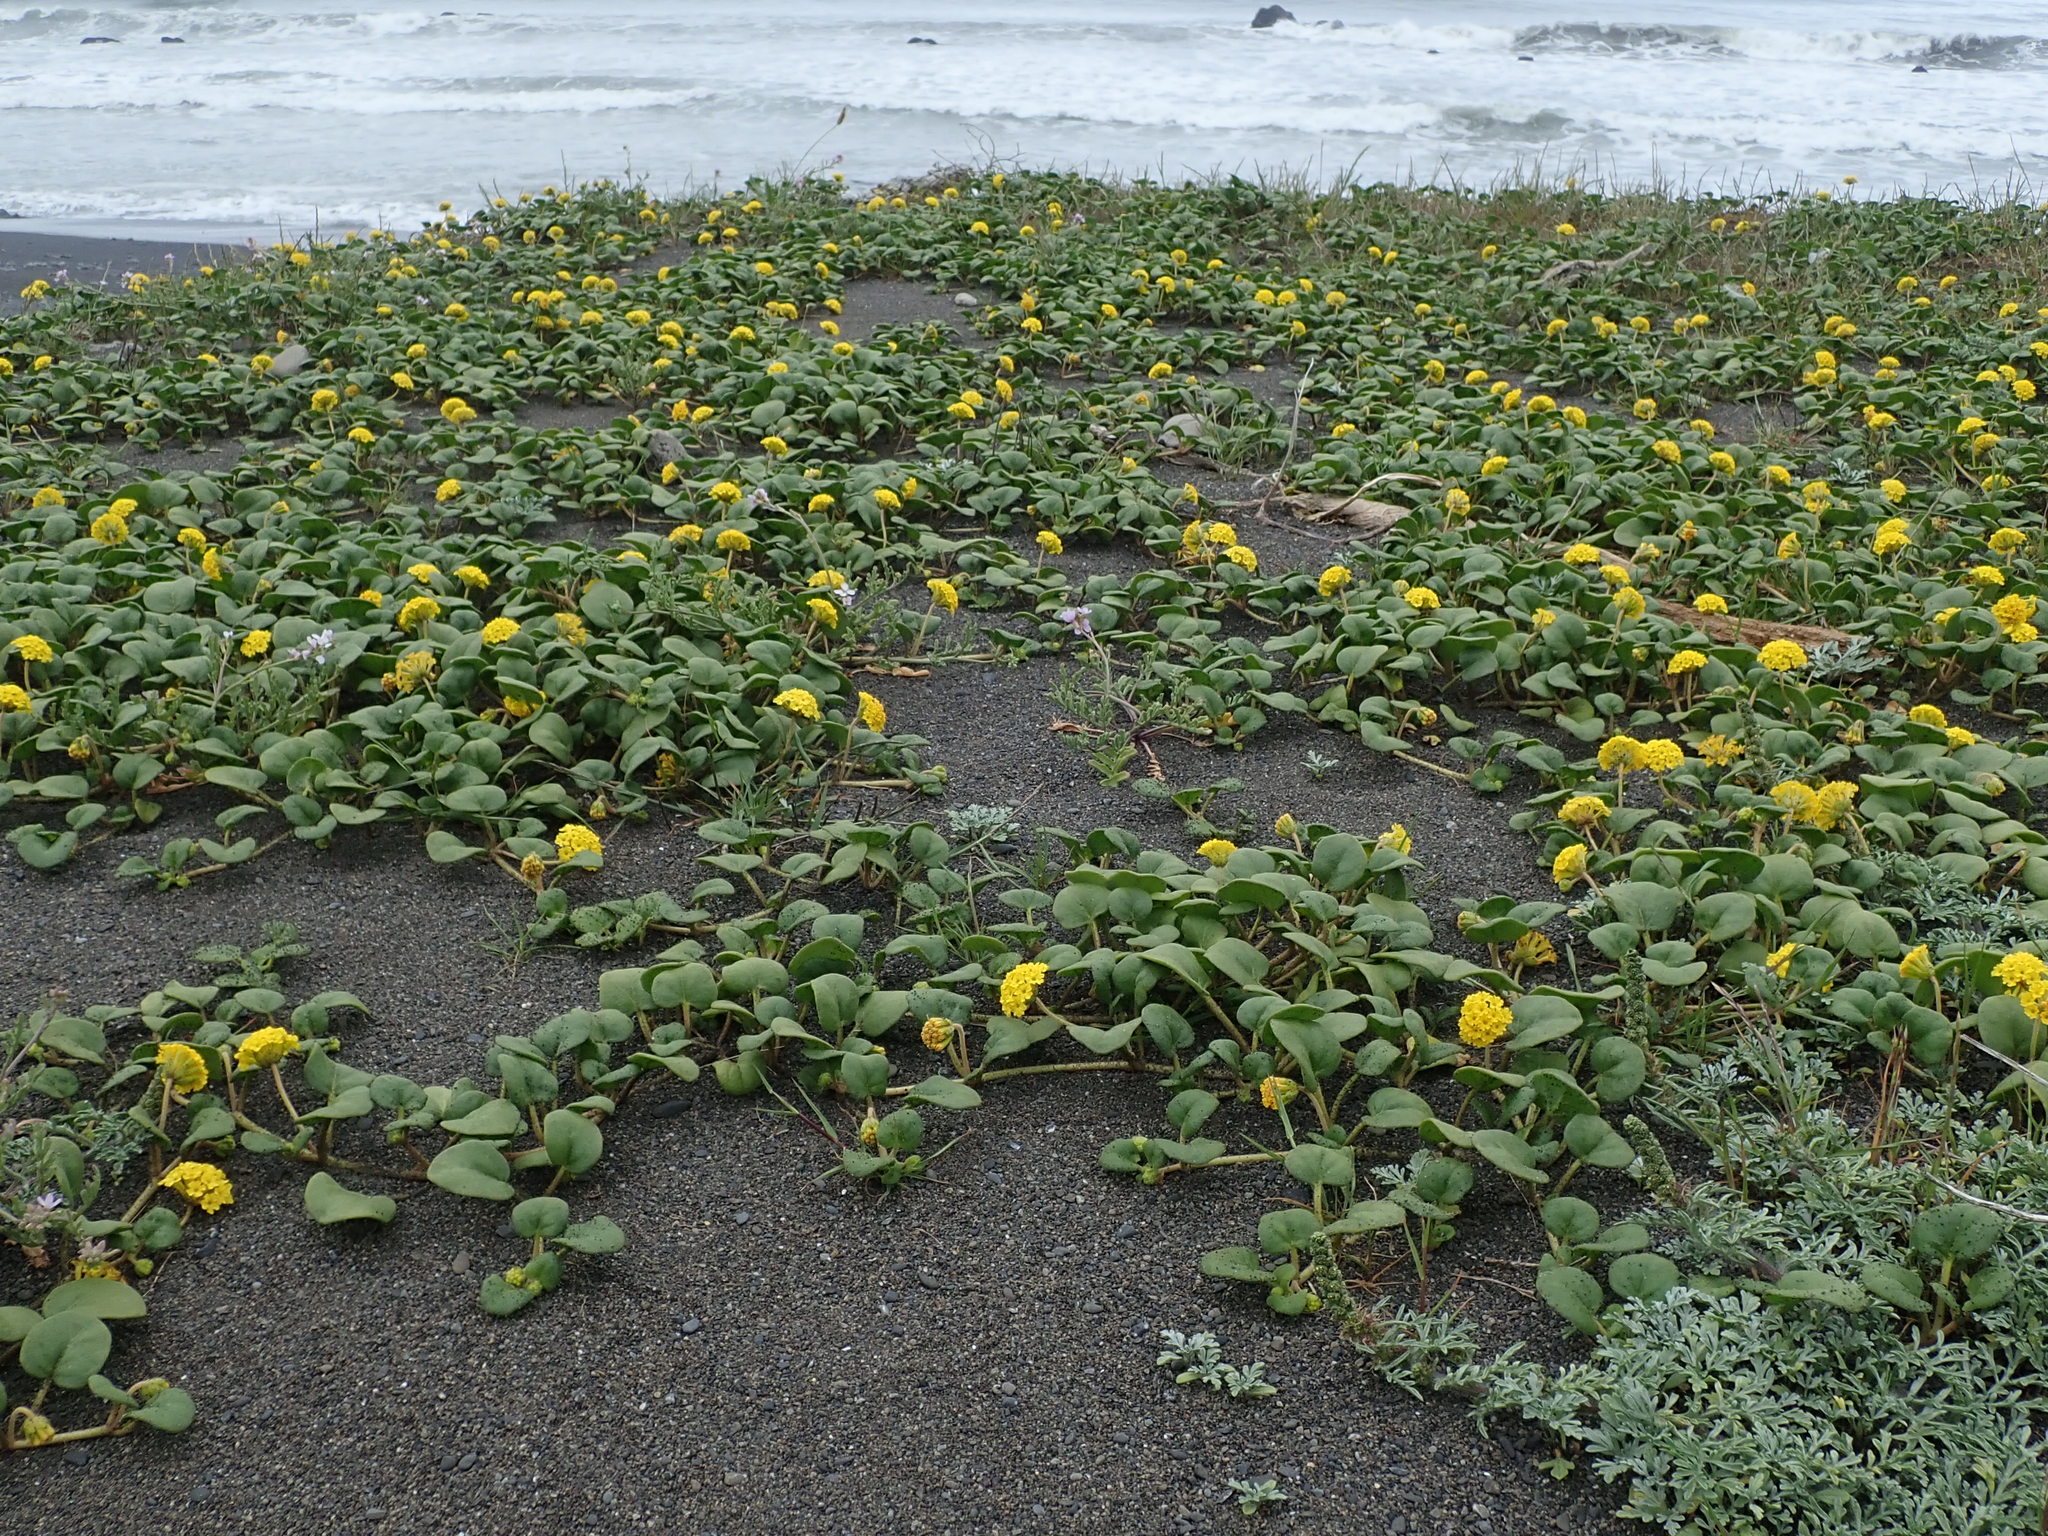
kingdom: Plantae
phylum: Tracheophyta
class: Magnoliopsida
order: Caryophyllales
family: Nyctaginaceae
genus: Abronia
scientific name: Abronia latifolia
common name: Yellow sand-verbena
